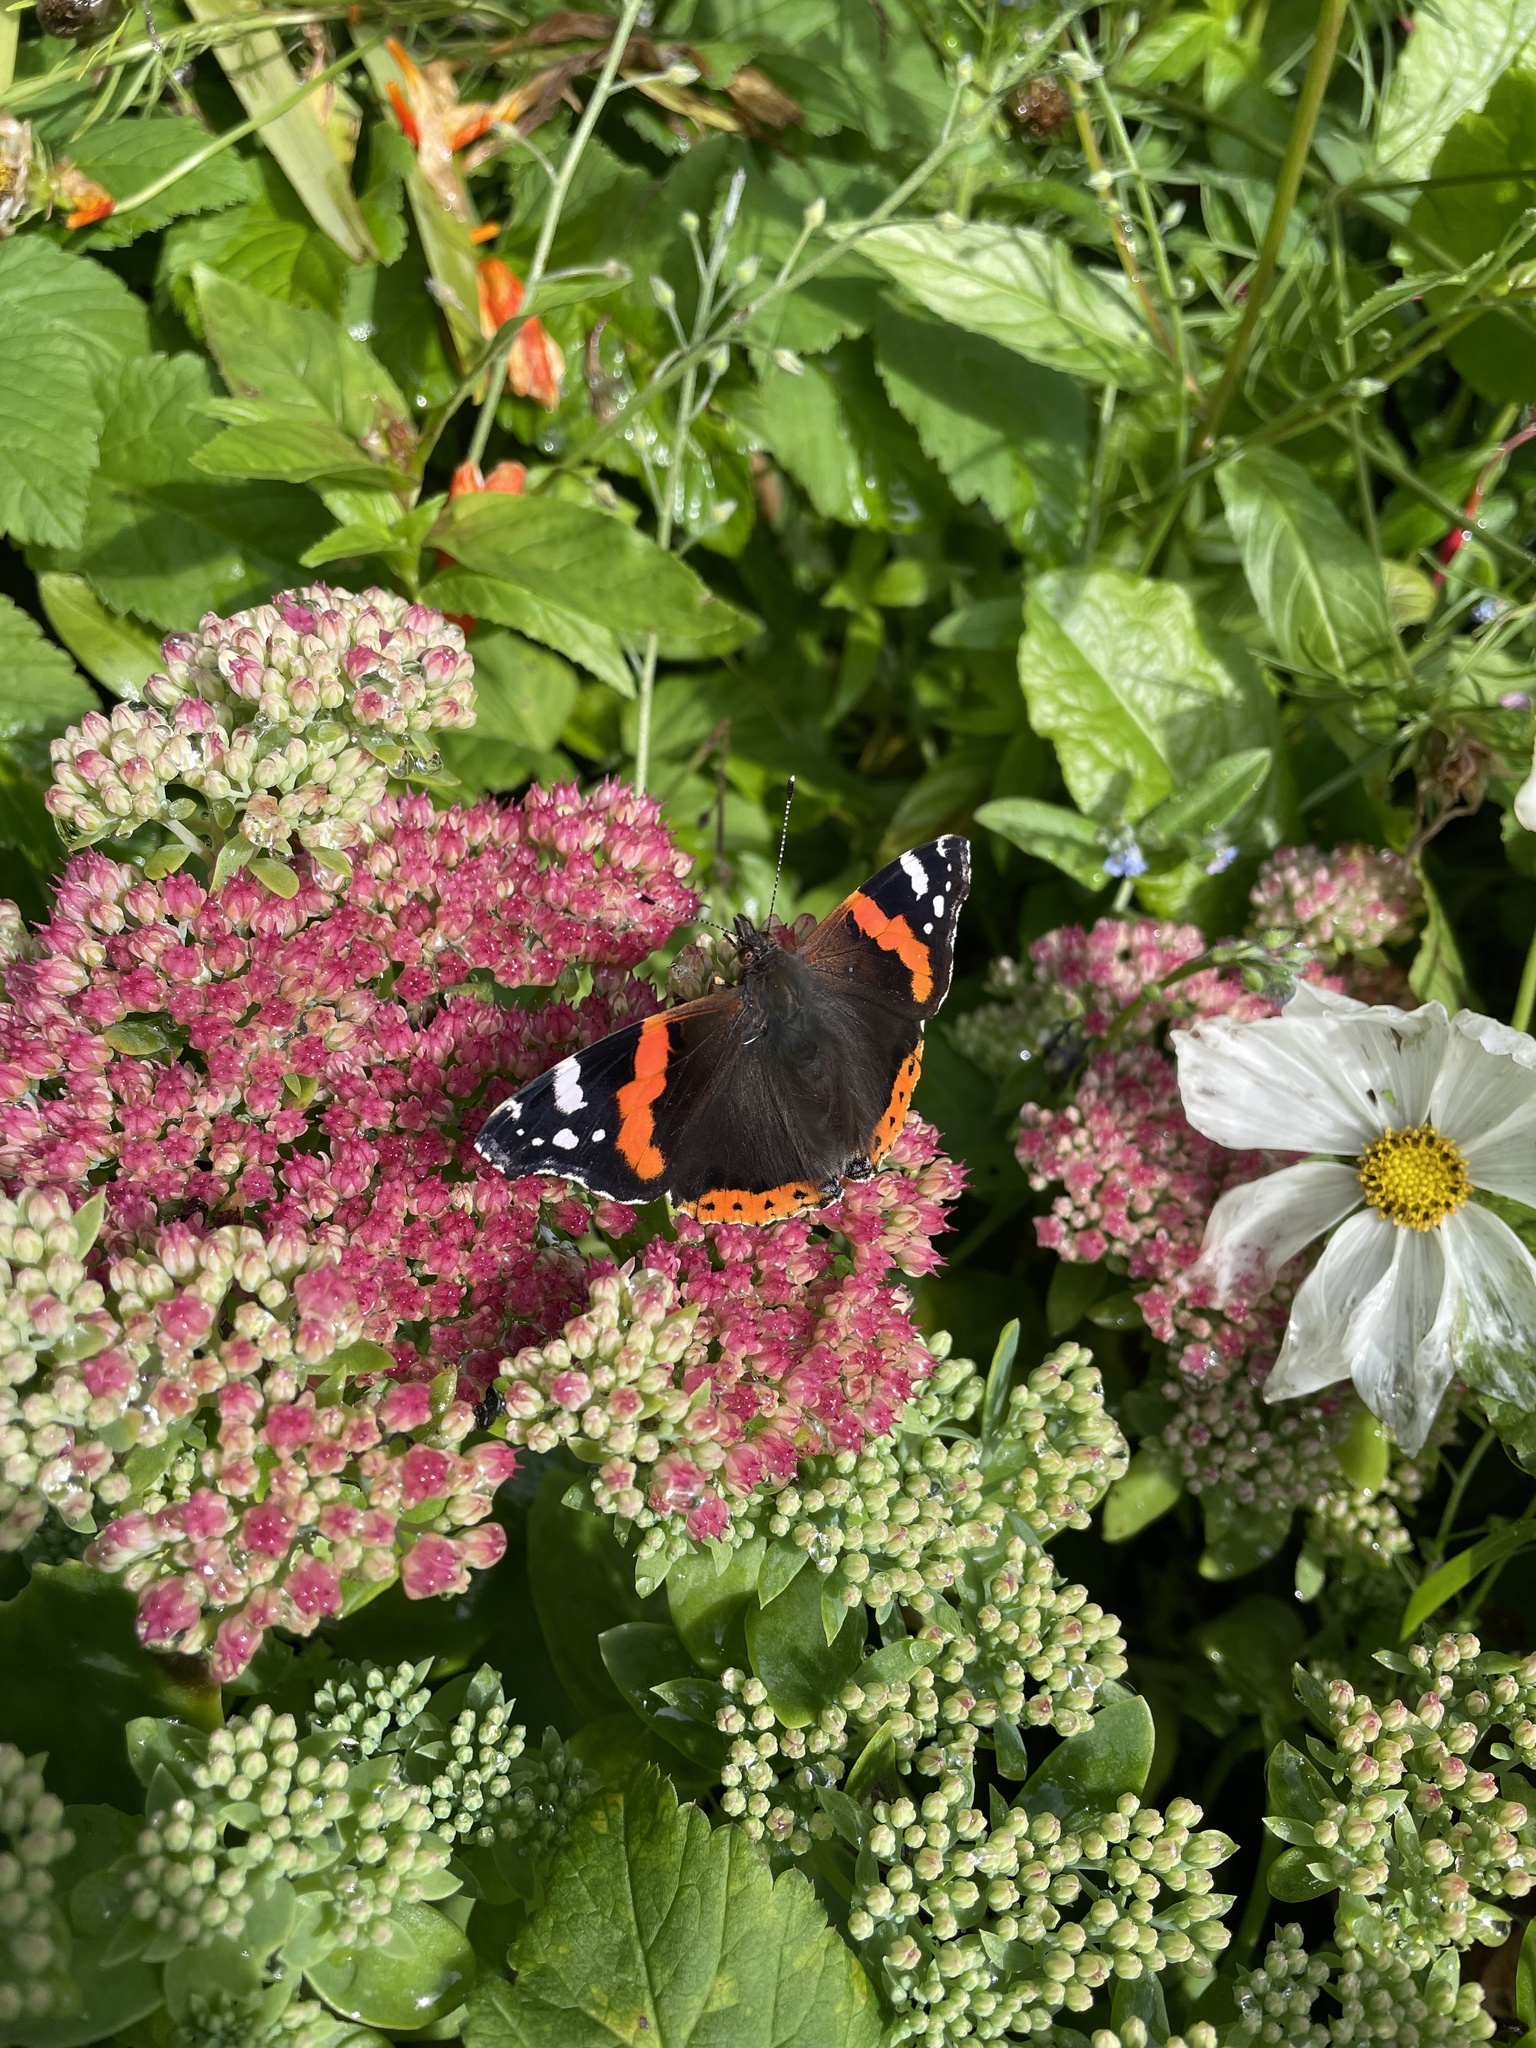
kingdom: Animalia
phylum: Arthropoda
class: Insecta
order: Lepidoptera
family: Nymphalidae
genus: Vanessa
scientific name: Vanessa atalanta
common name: Red admiral
